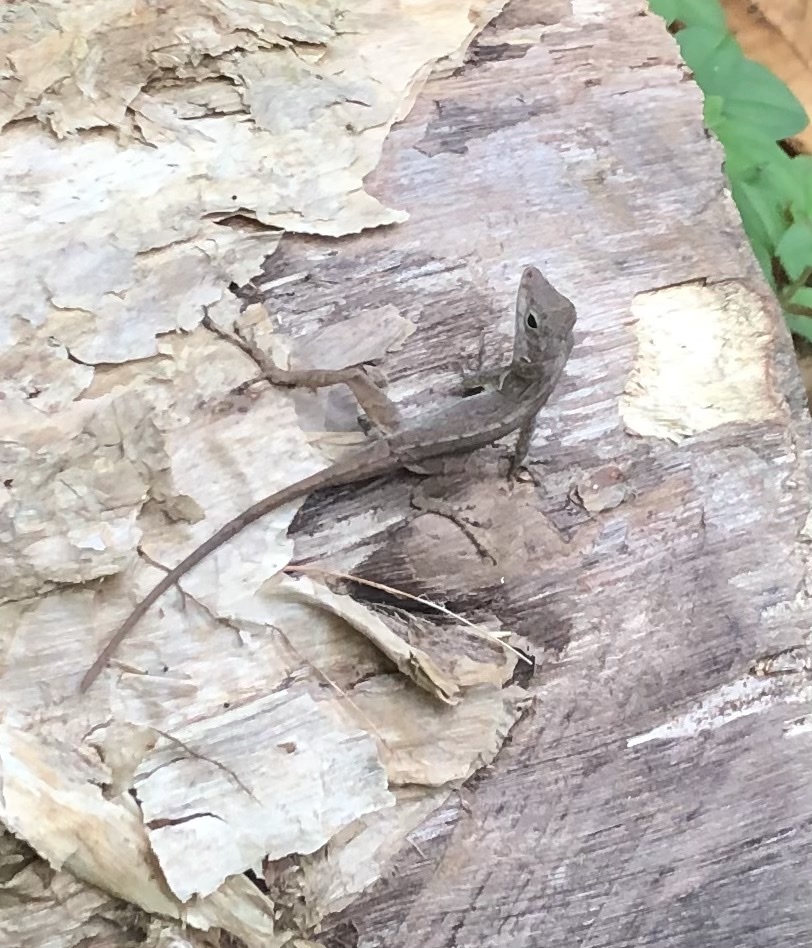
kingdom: Animalia
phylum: Chordata
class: Squamata
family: Dactyloidae
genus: Anolis
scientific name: Anolis cristatellus
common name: Crested anole
